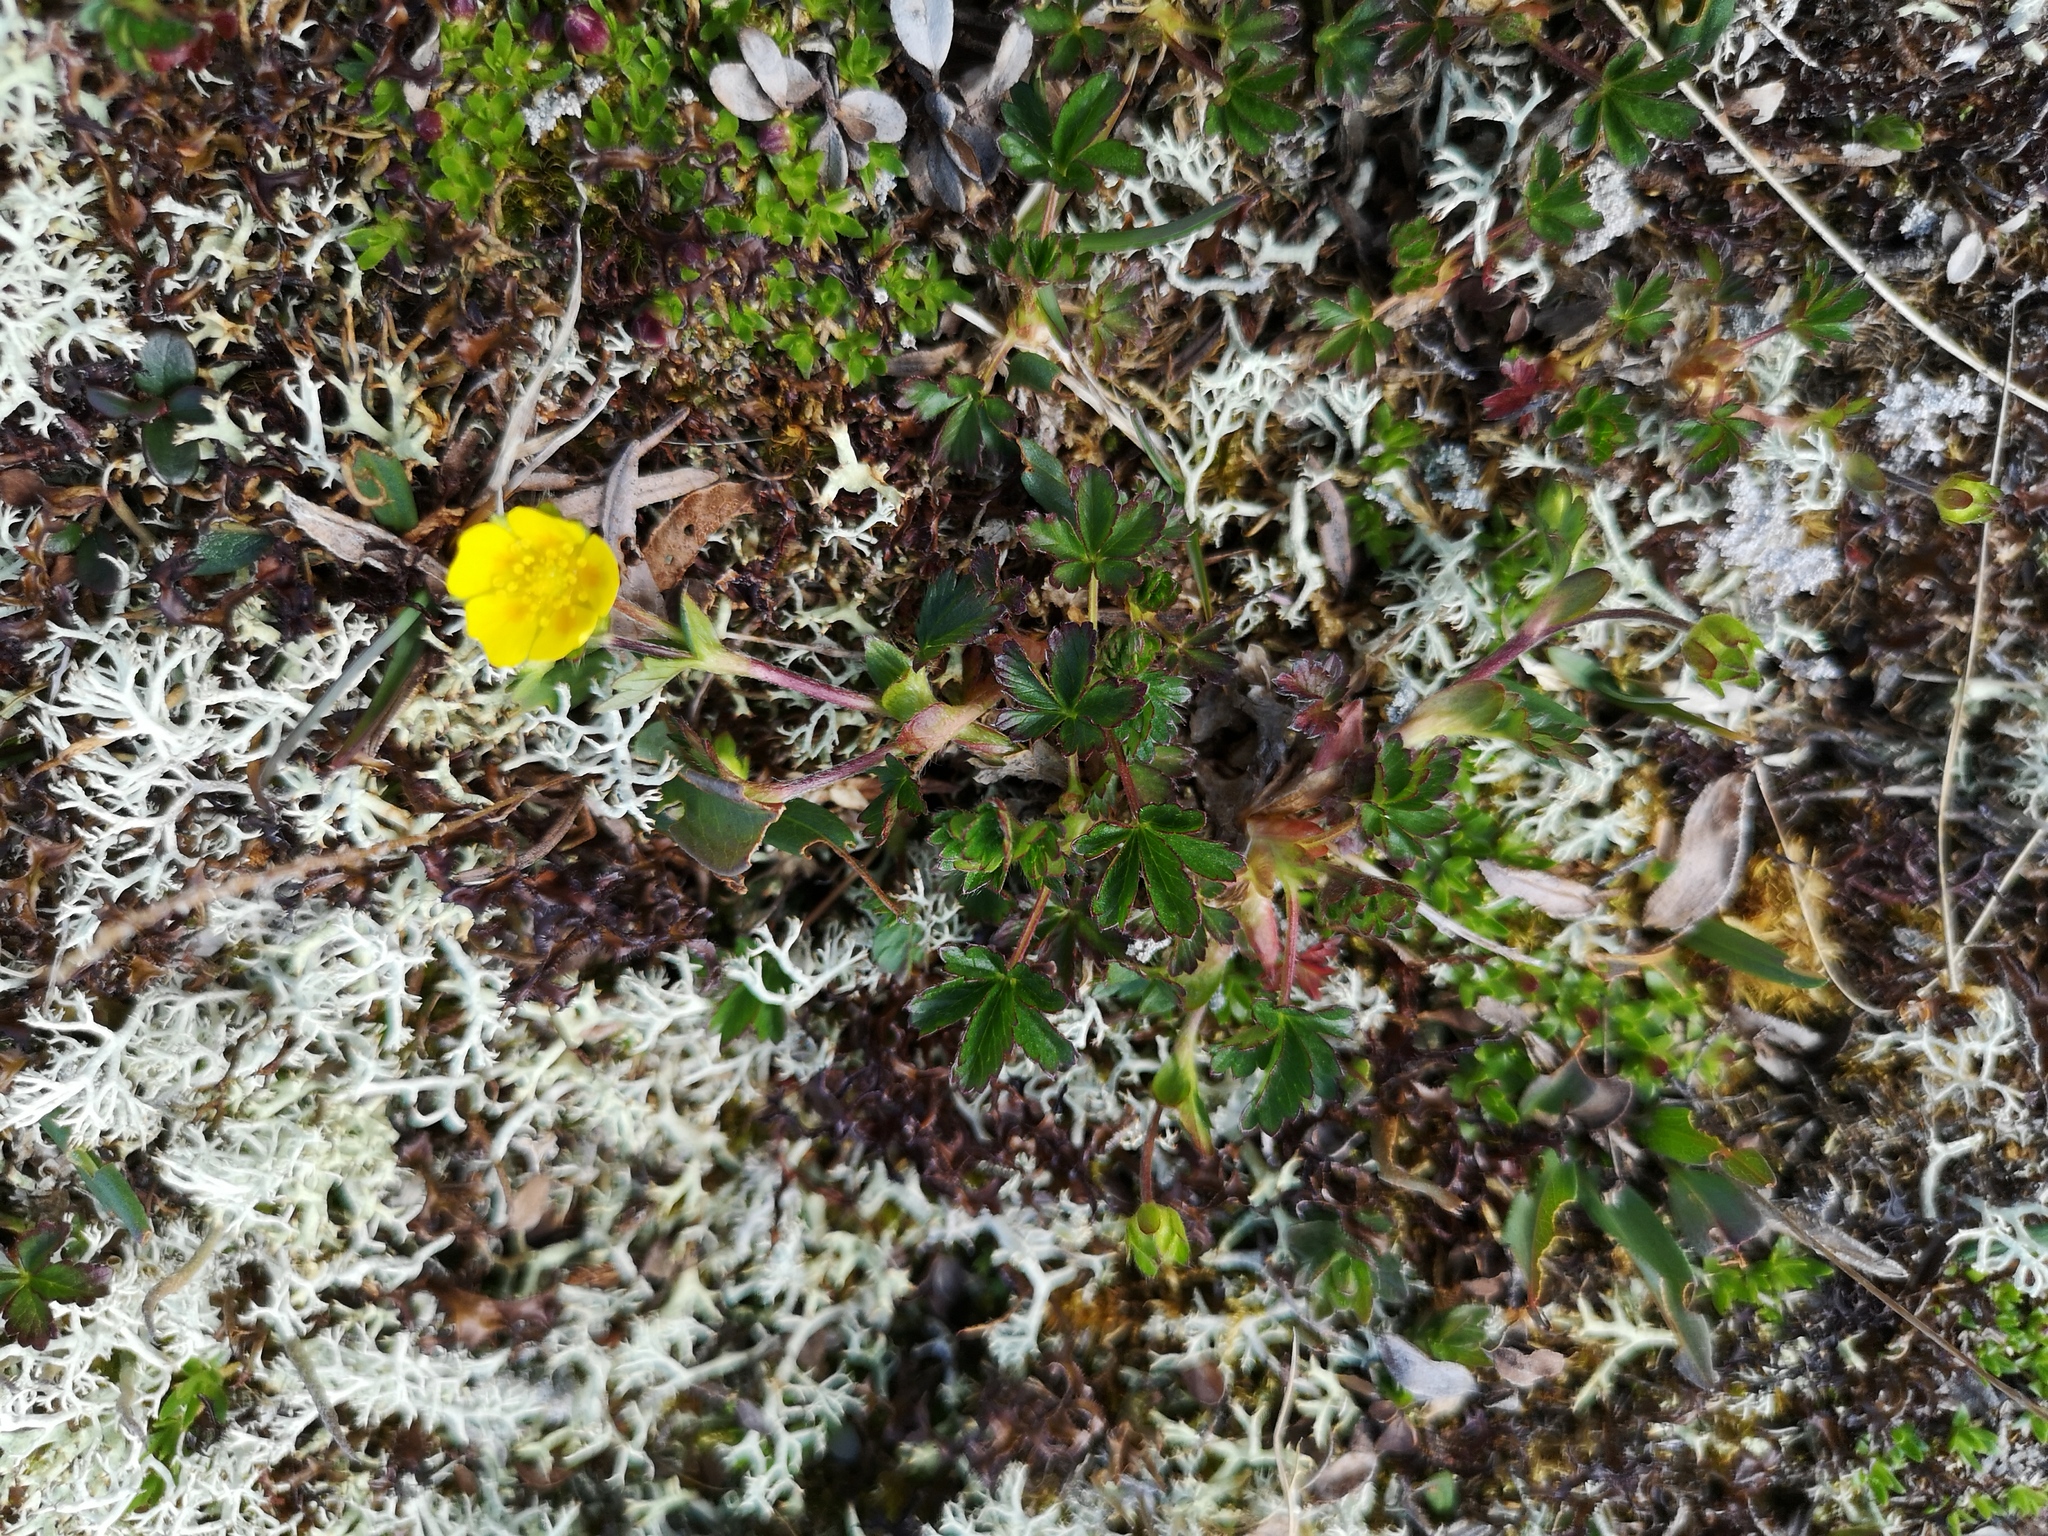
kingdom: Plantae
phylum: Tracheophyta
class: Magnoliopsida
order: Rosales
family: Rosaceae
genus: Potentilla
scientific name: Potentilla crantzii
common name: Alpine cinquefoil
